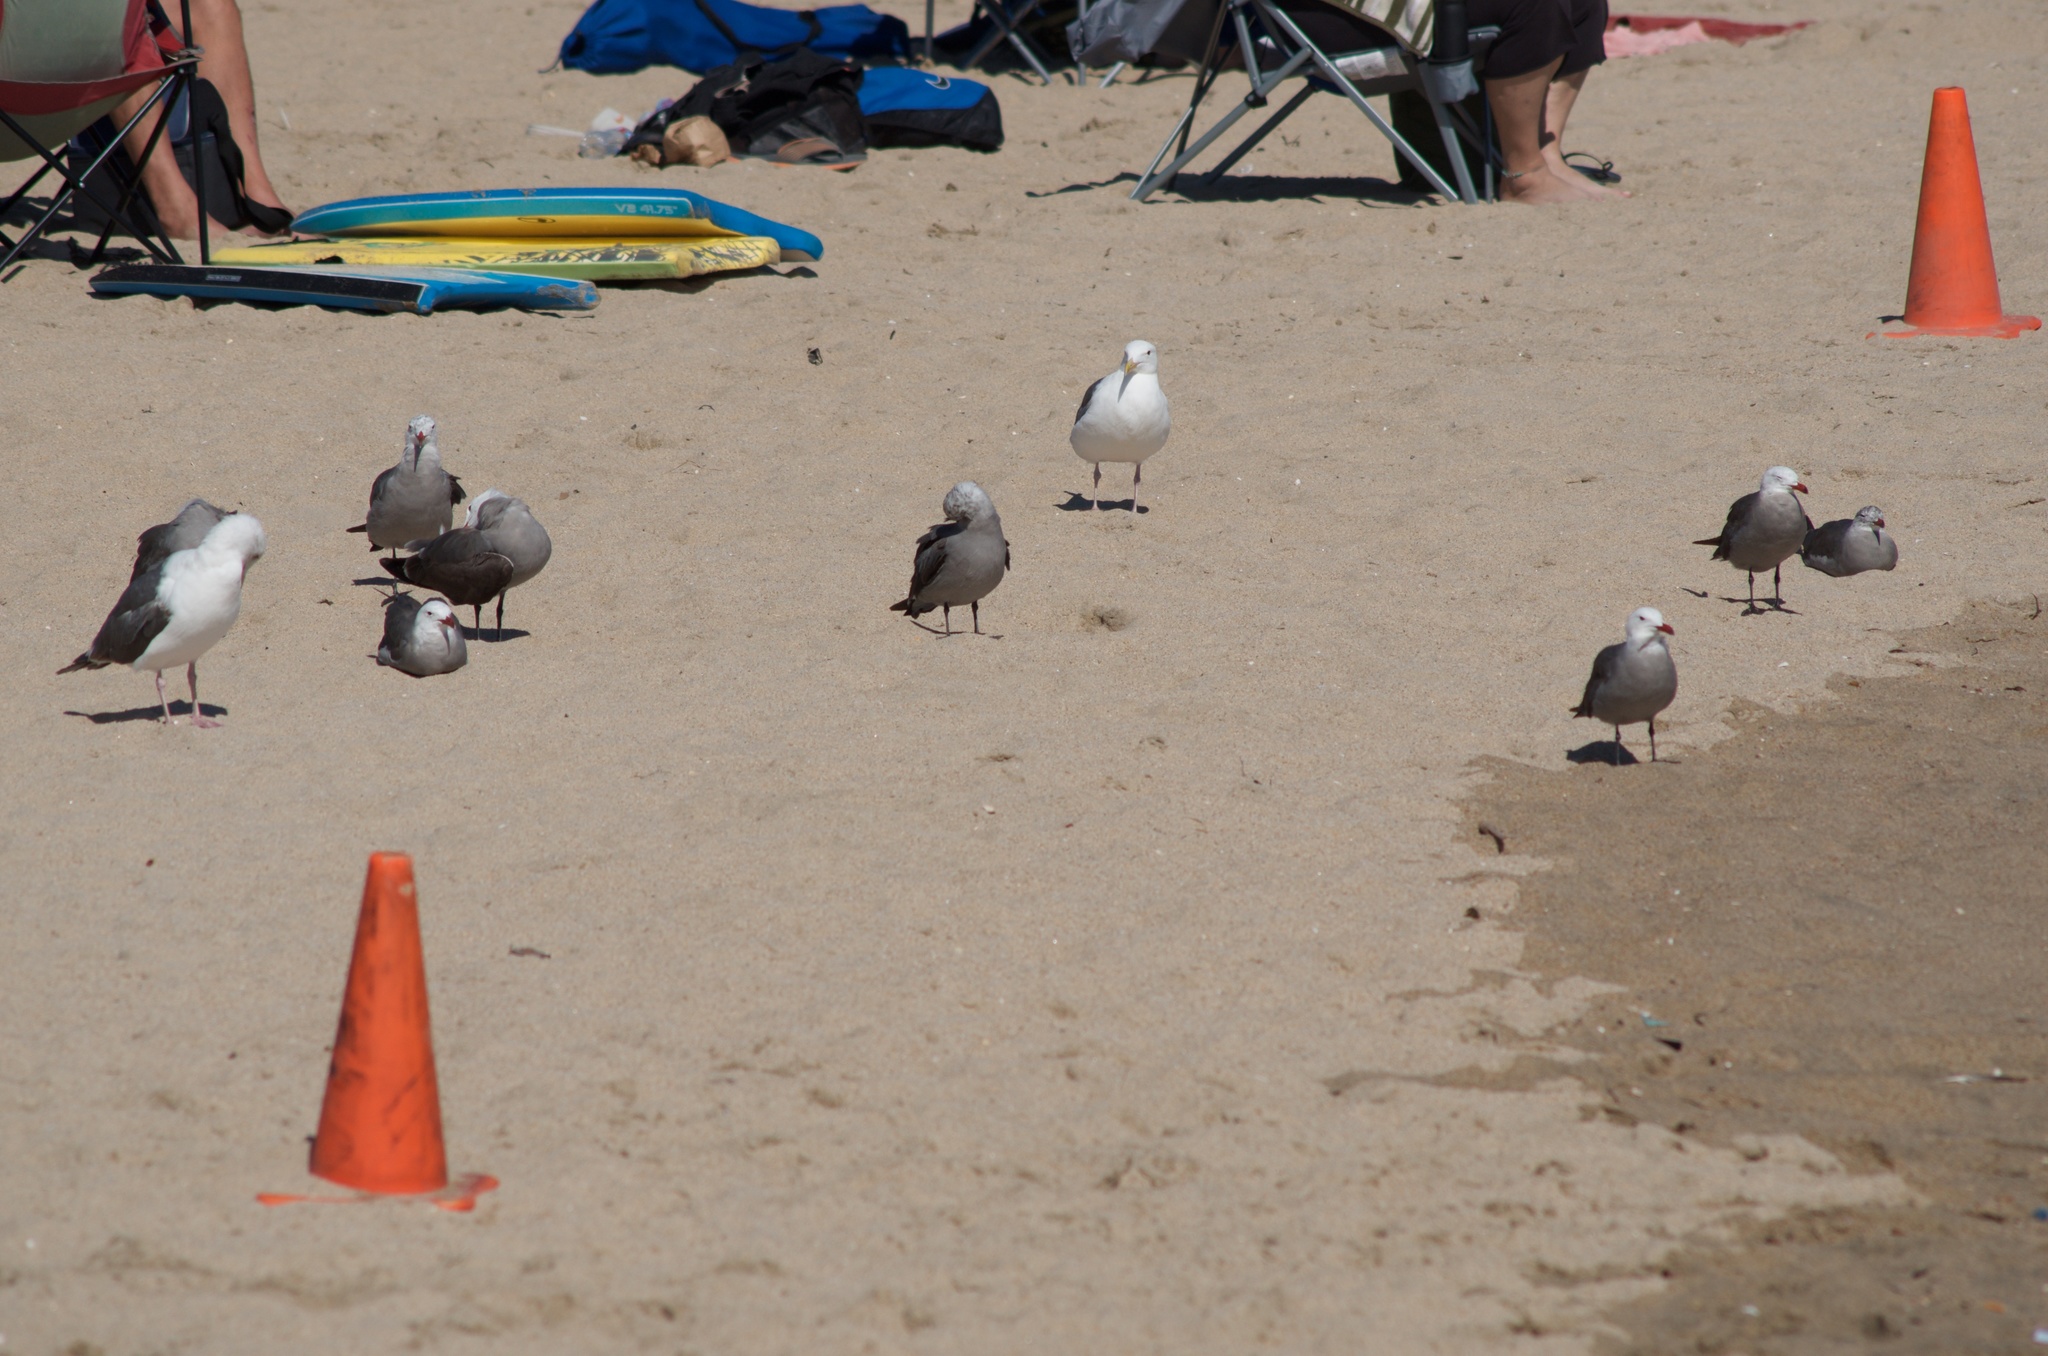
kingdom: Animalia
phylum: Chordata
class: Aves
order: Charadriiformes
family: Laridae
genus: Larus
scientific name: Larus occidentalis
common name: Western gull
